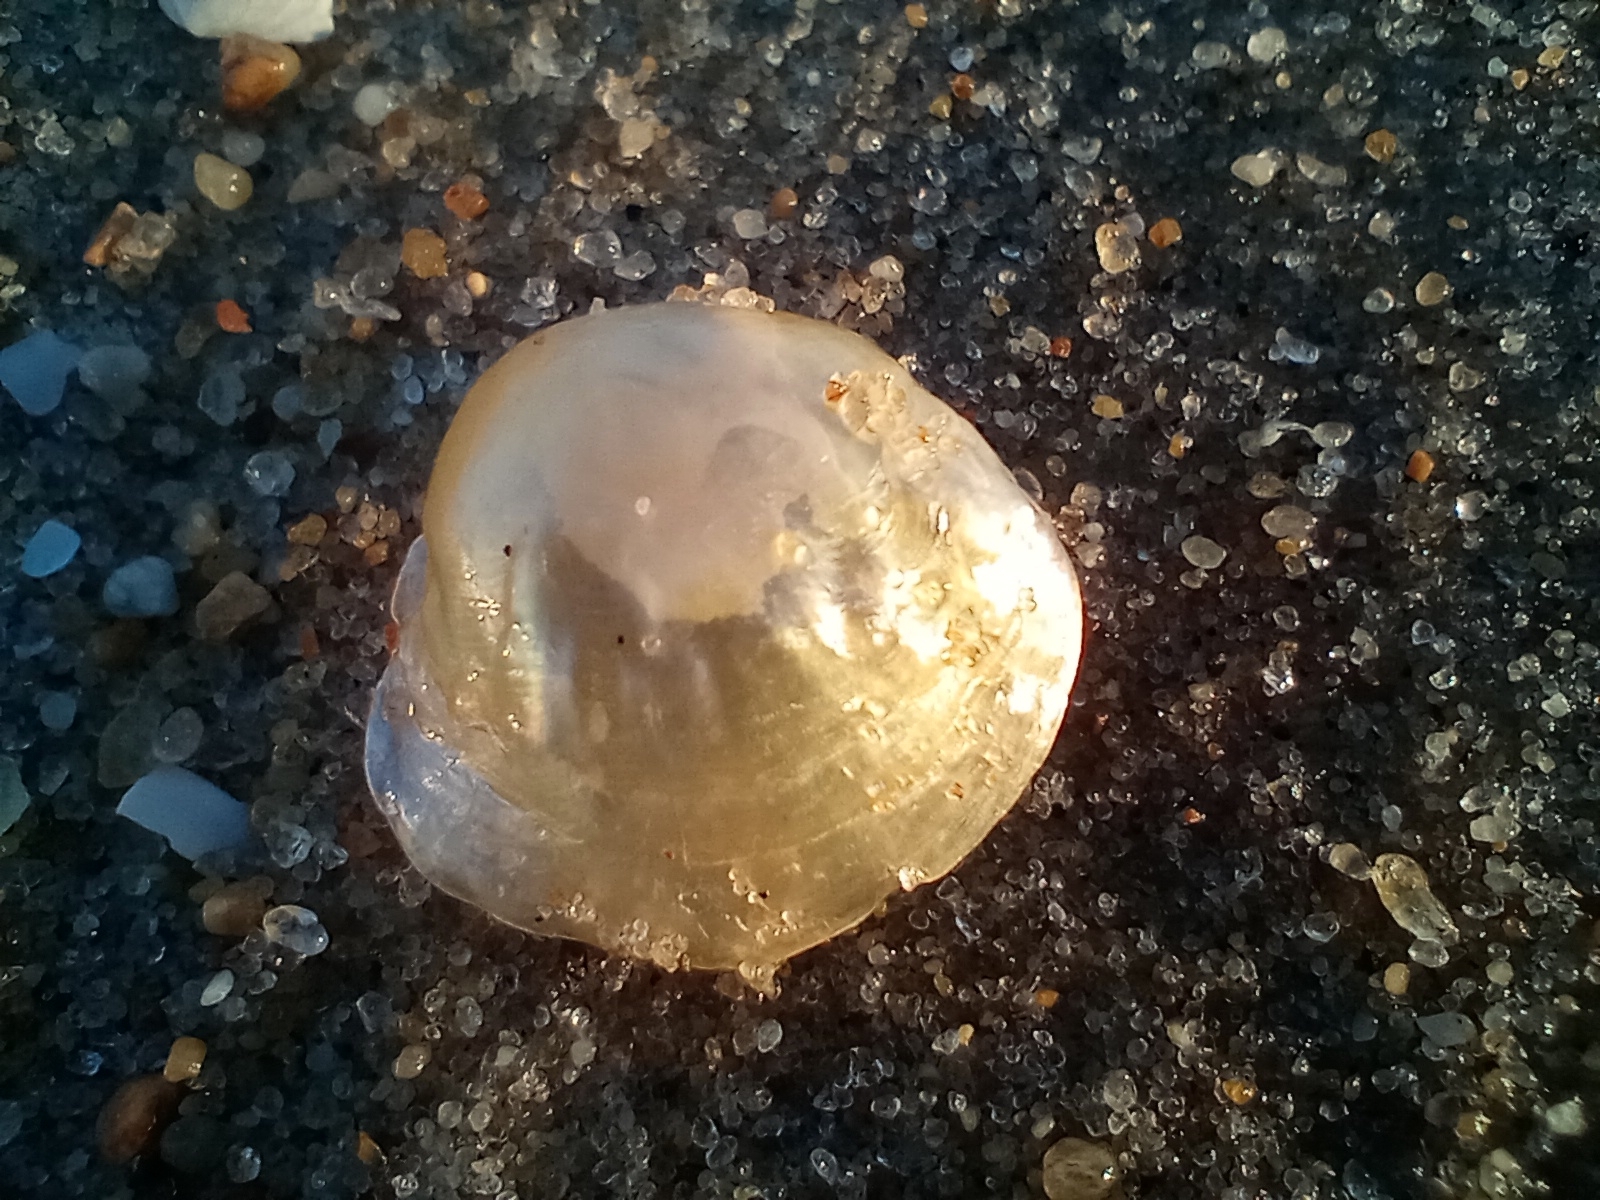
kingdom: Animalia
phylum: Mollusca
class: Bivalvia
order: Pectinida
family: Anomiidae
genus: Anomia
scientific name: Anomia simplex
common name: Common jingle shell
